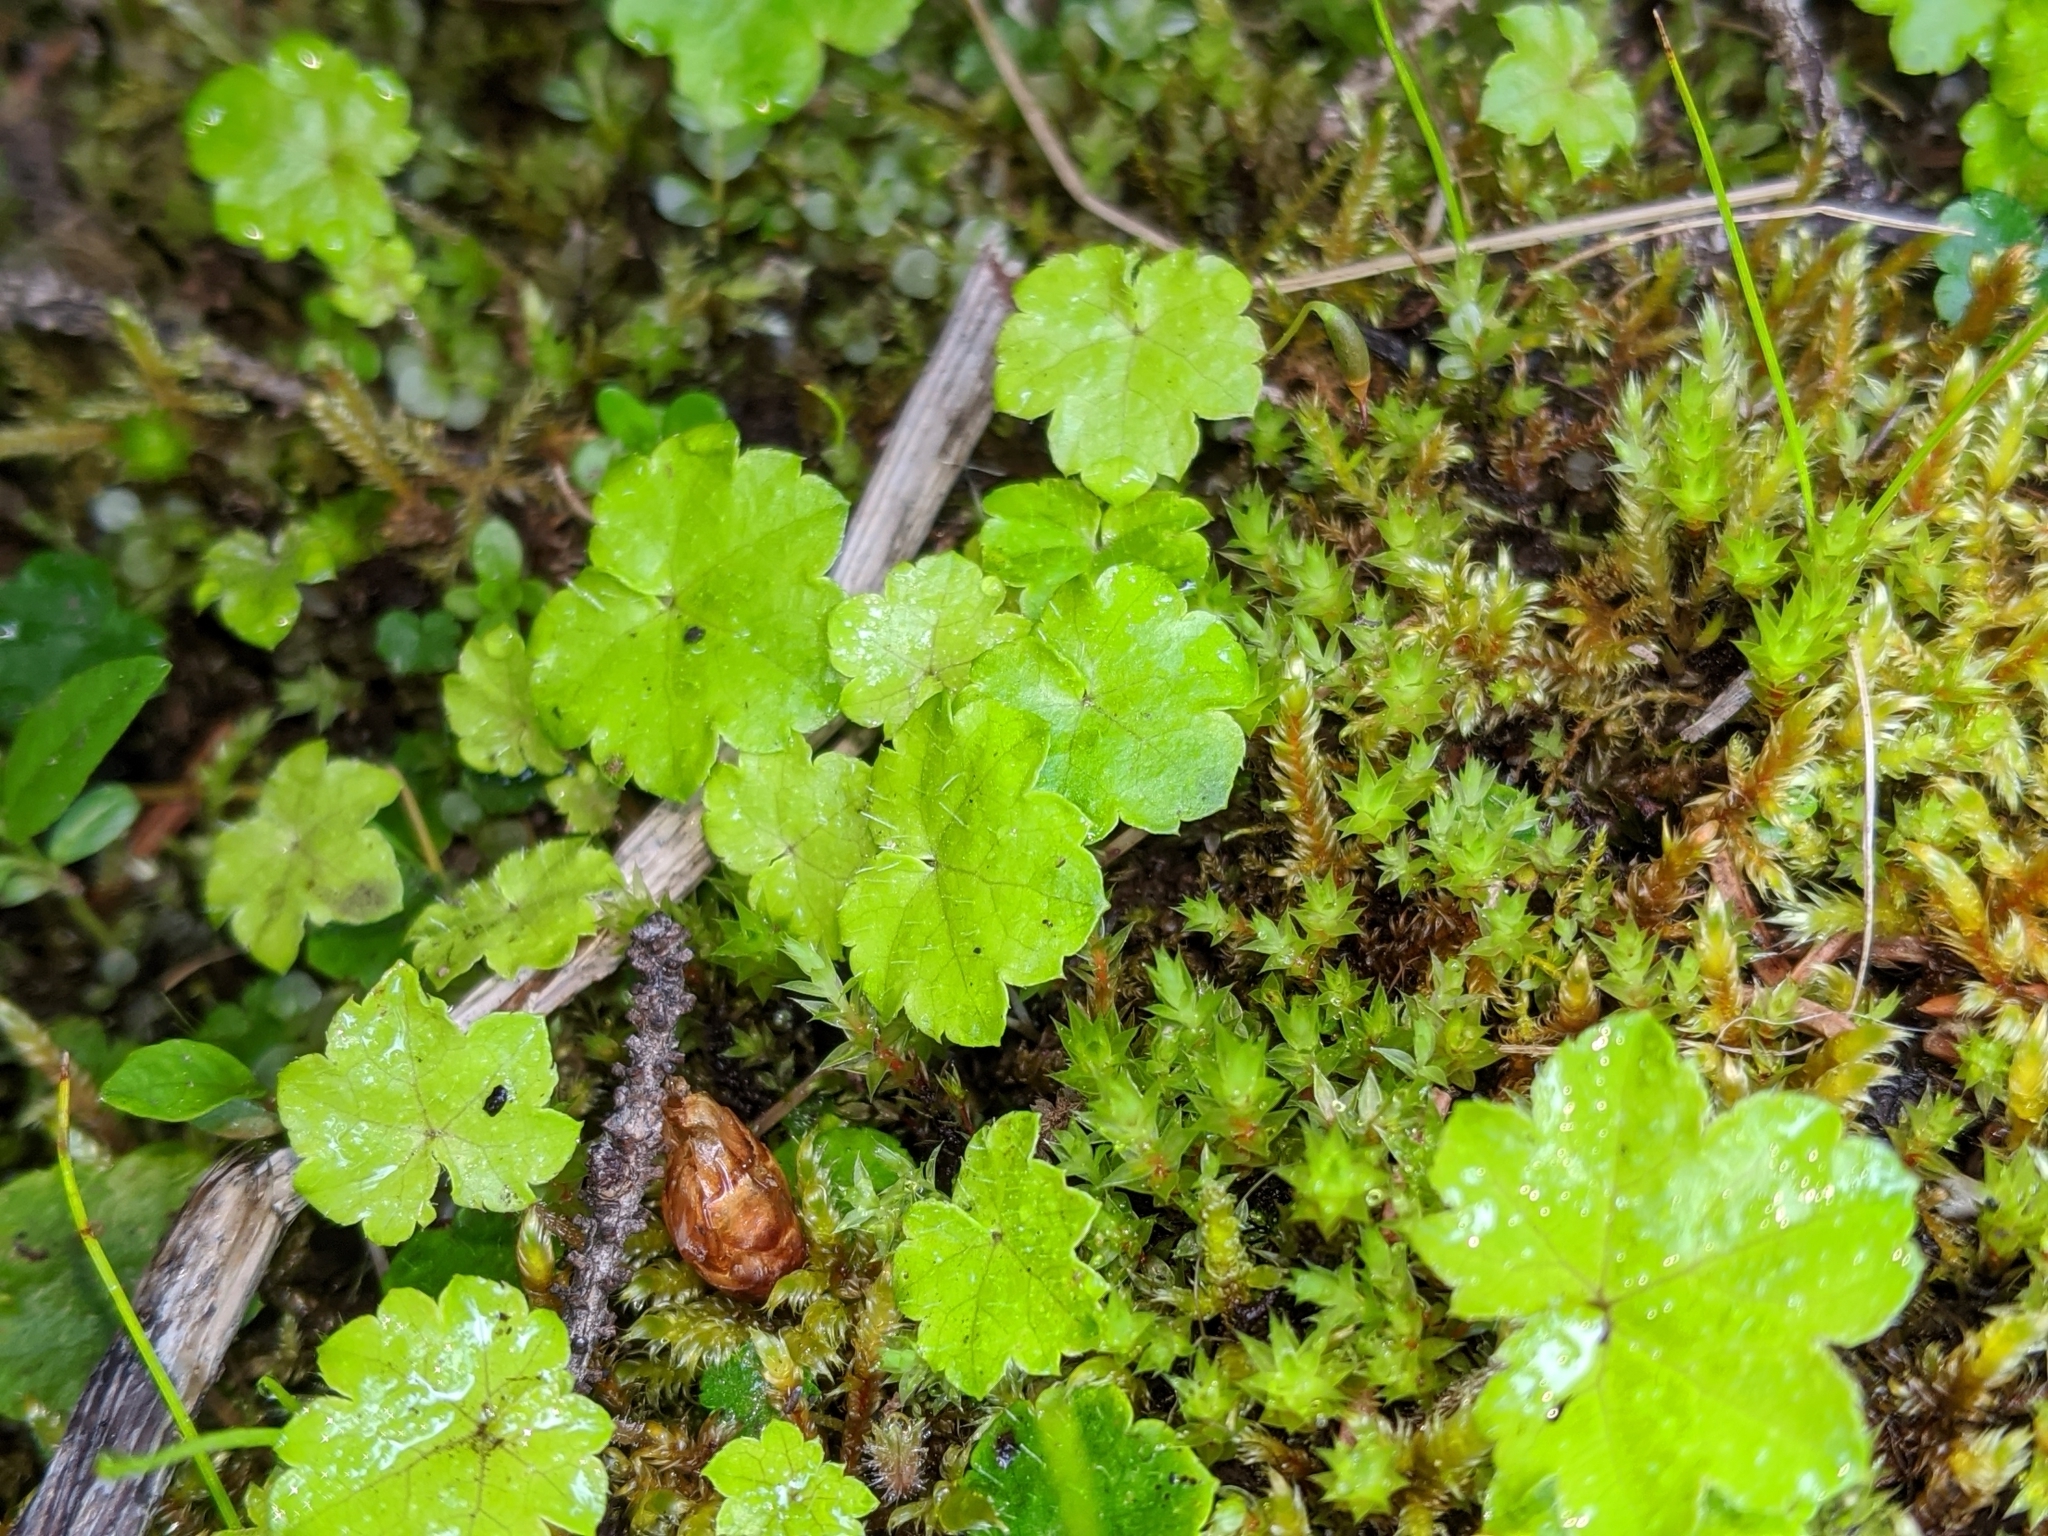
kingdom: Plantae
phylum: Tracheophyta
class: Magnoliopsida
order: Saxifragales
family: Saxifragaceae
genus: Mitella
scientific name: Mitella nuda
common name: Bare-stemmed bishop's-cap
